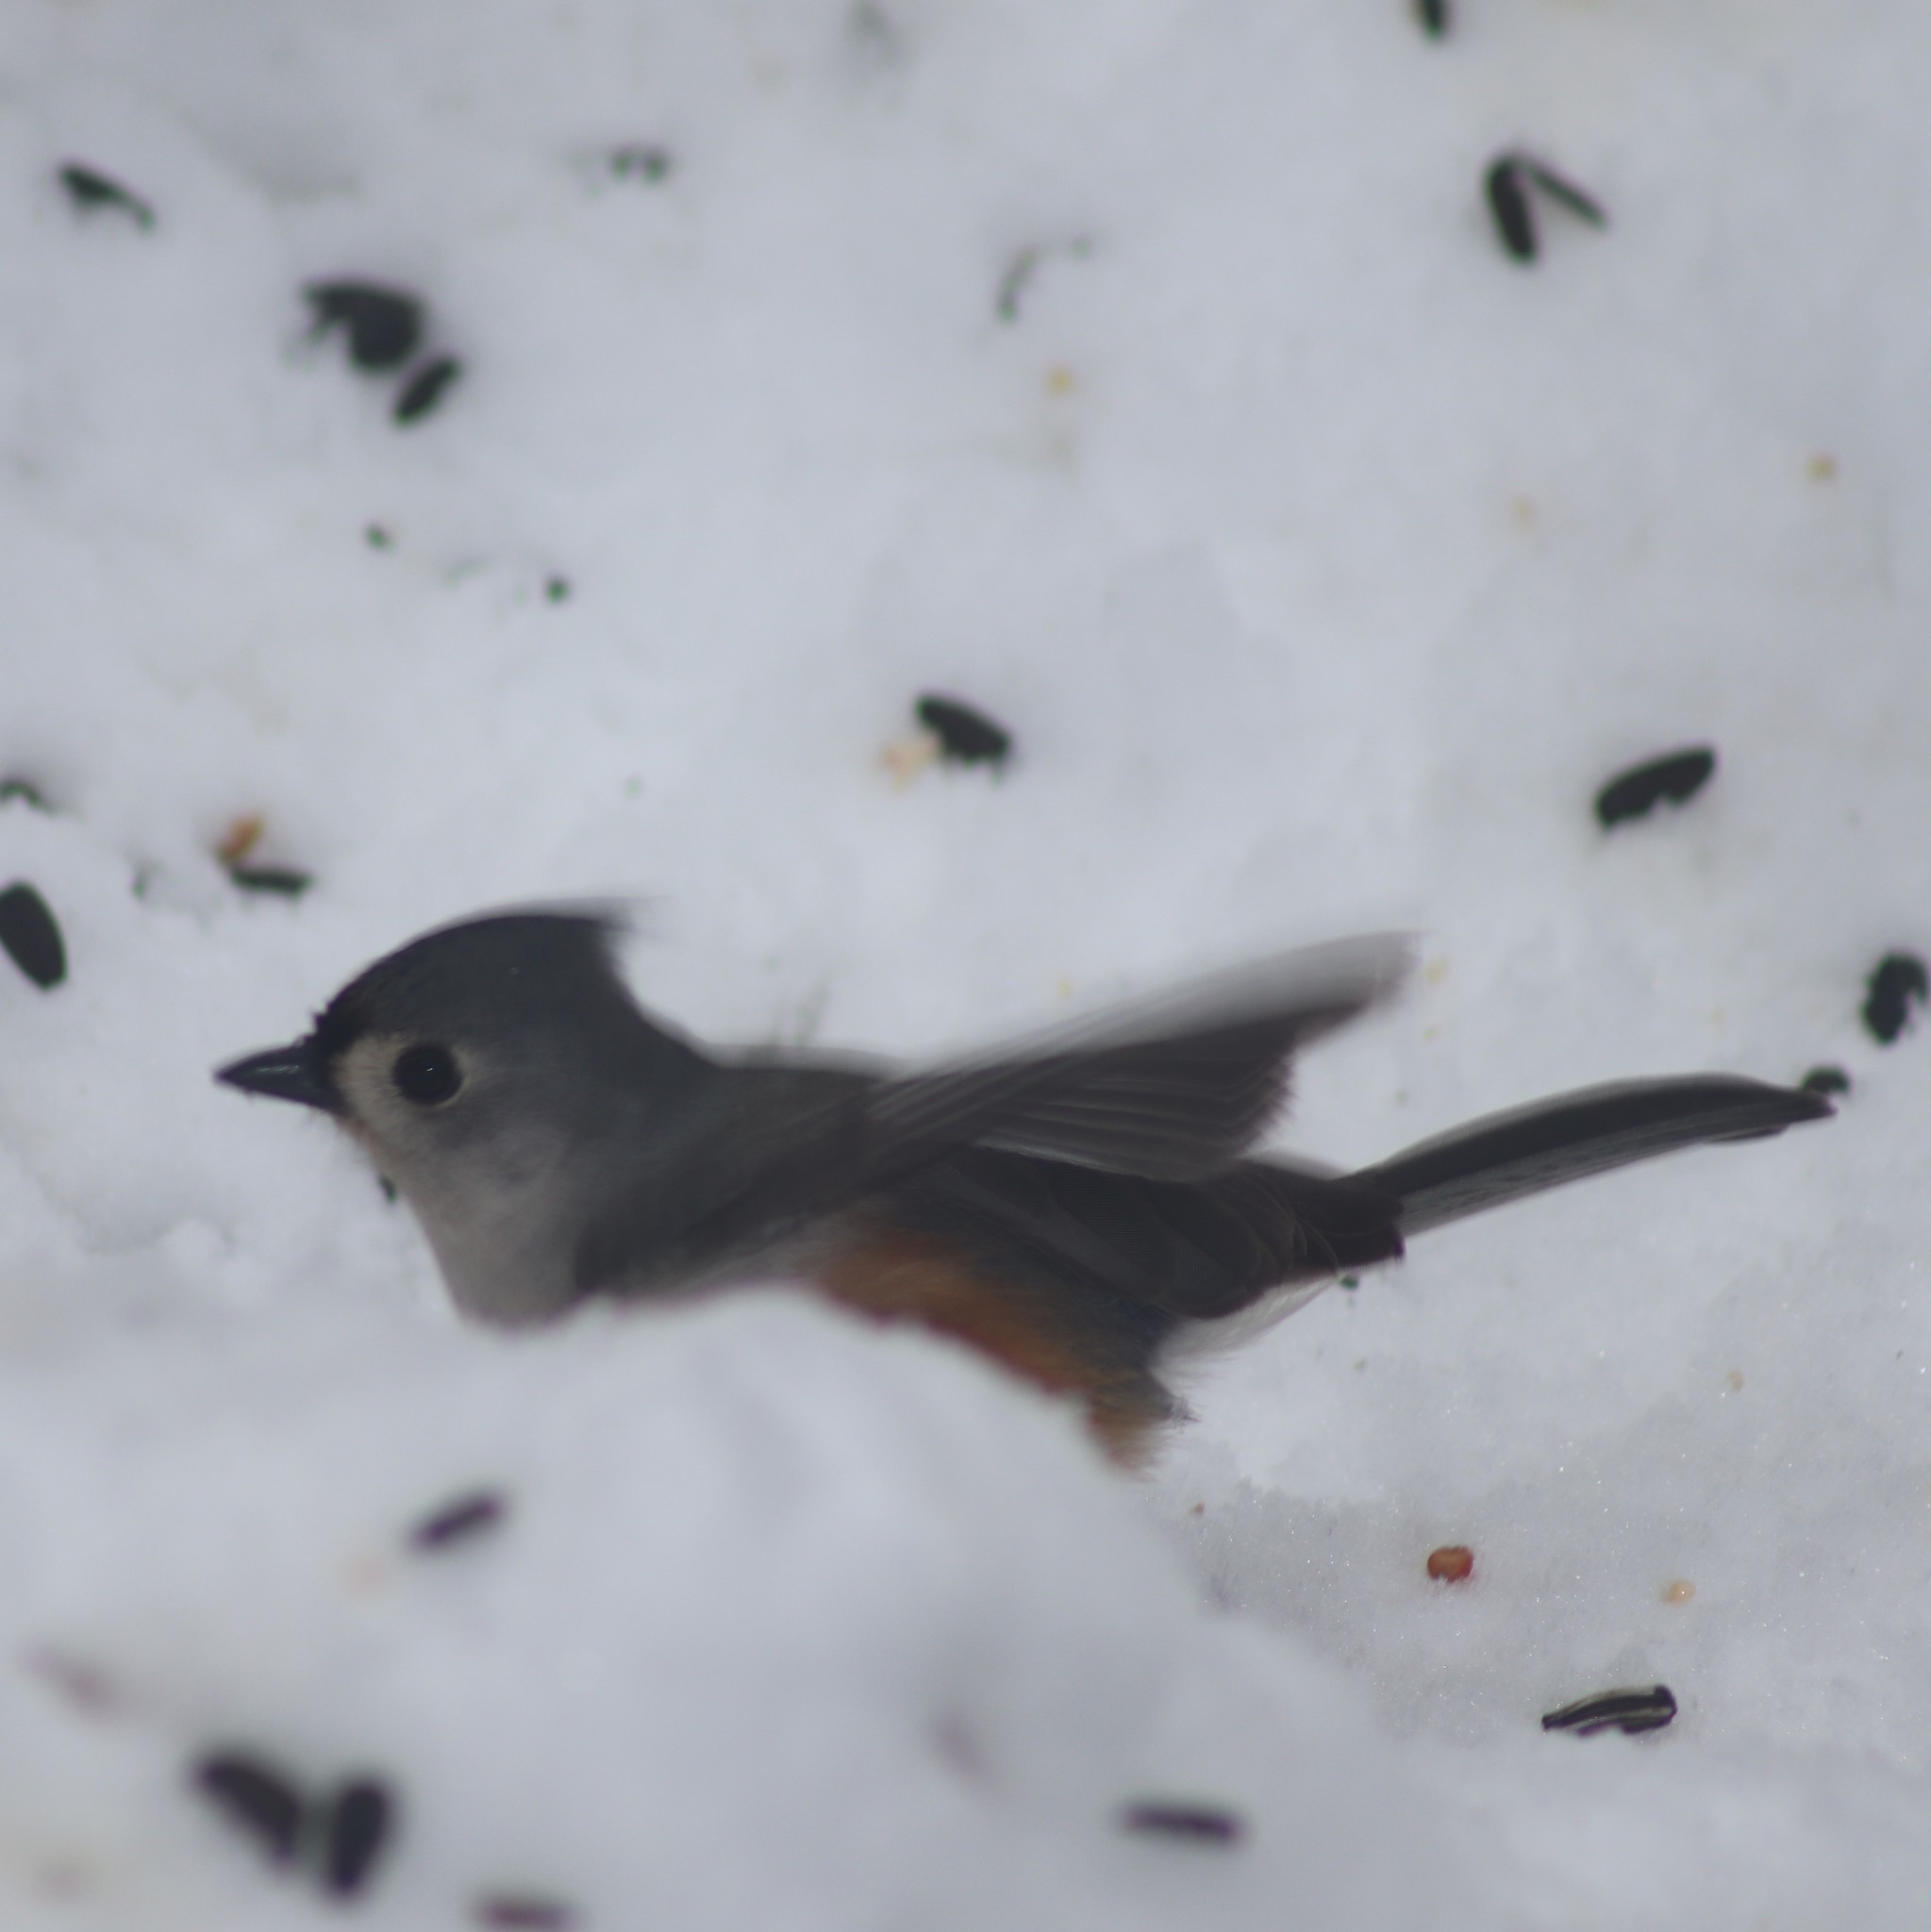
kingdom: Animalia
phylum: Chordata
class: Aves
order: Passeriformes
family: Paridae
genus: Baeolophus
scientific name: Baeolophus bicolor
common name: Tufted titmouse
